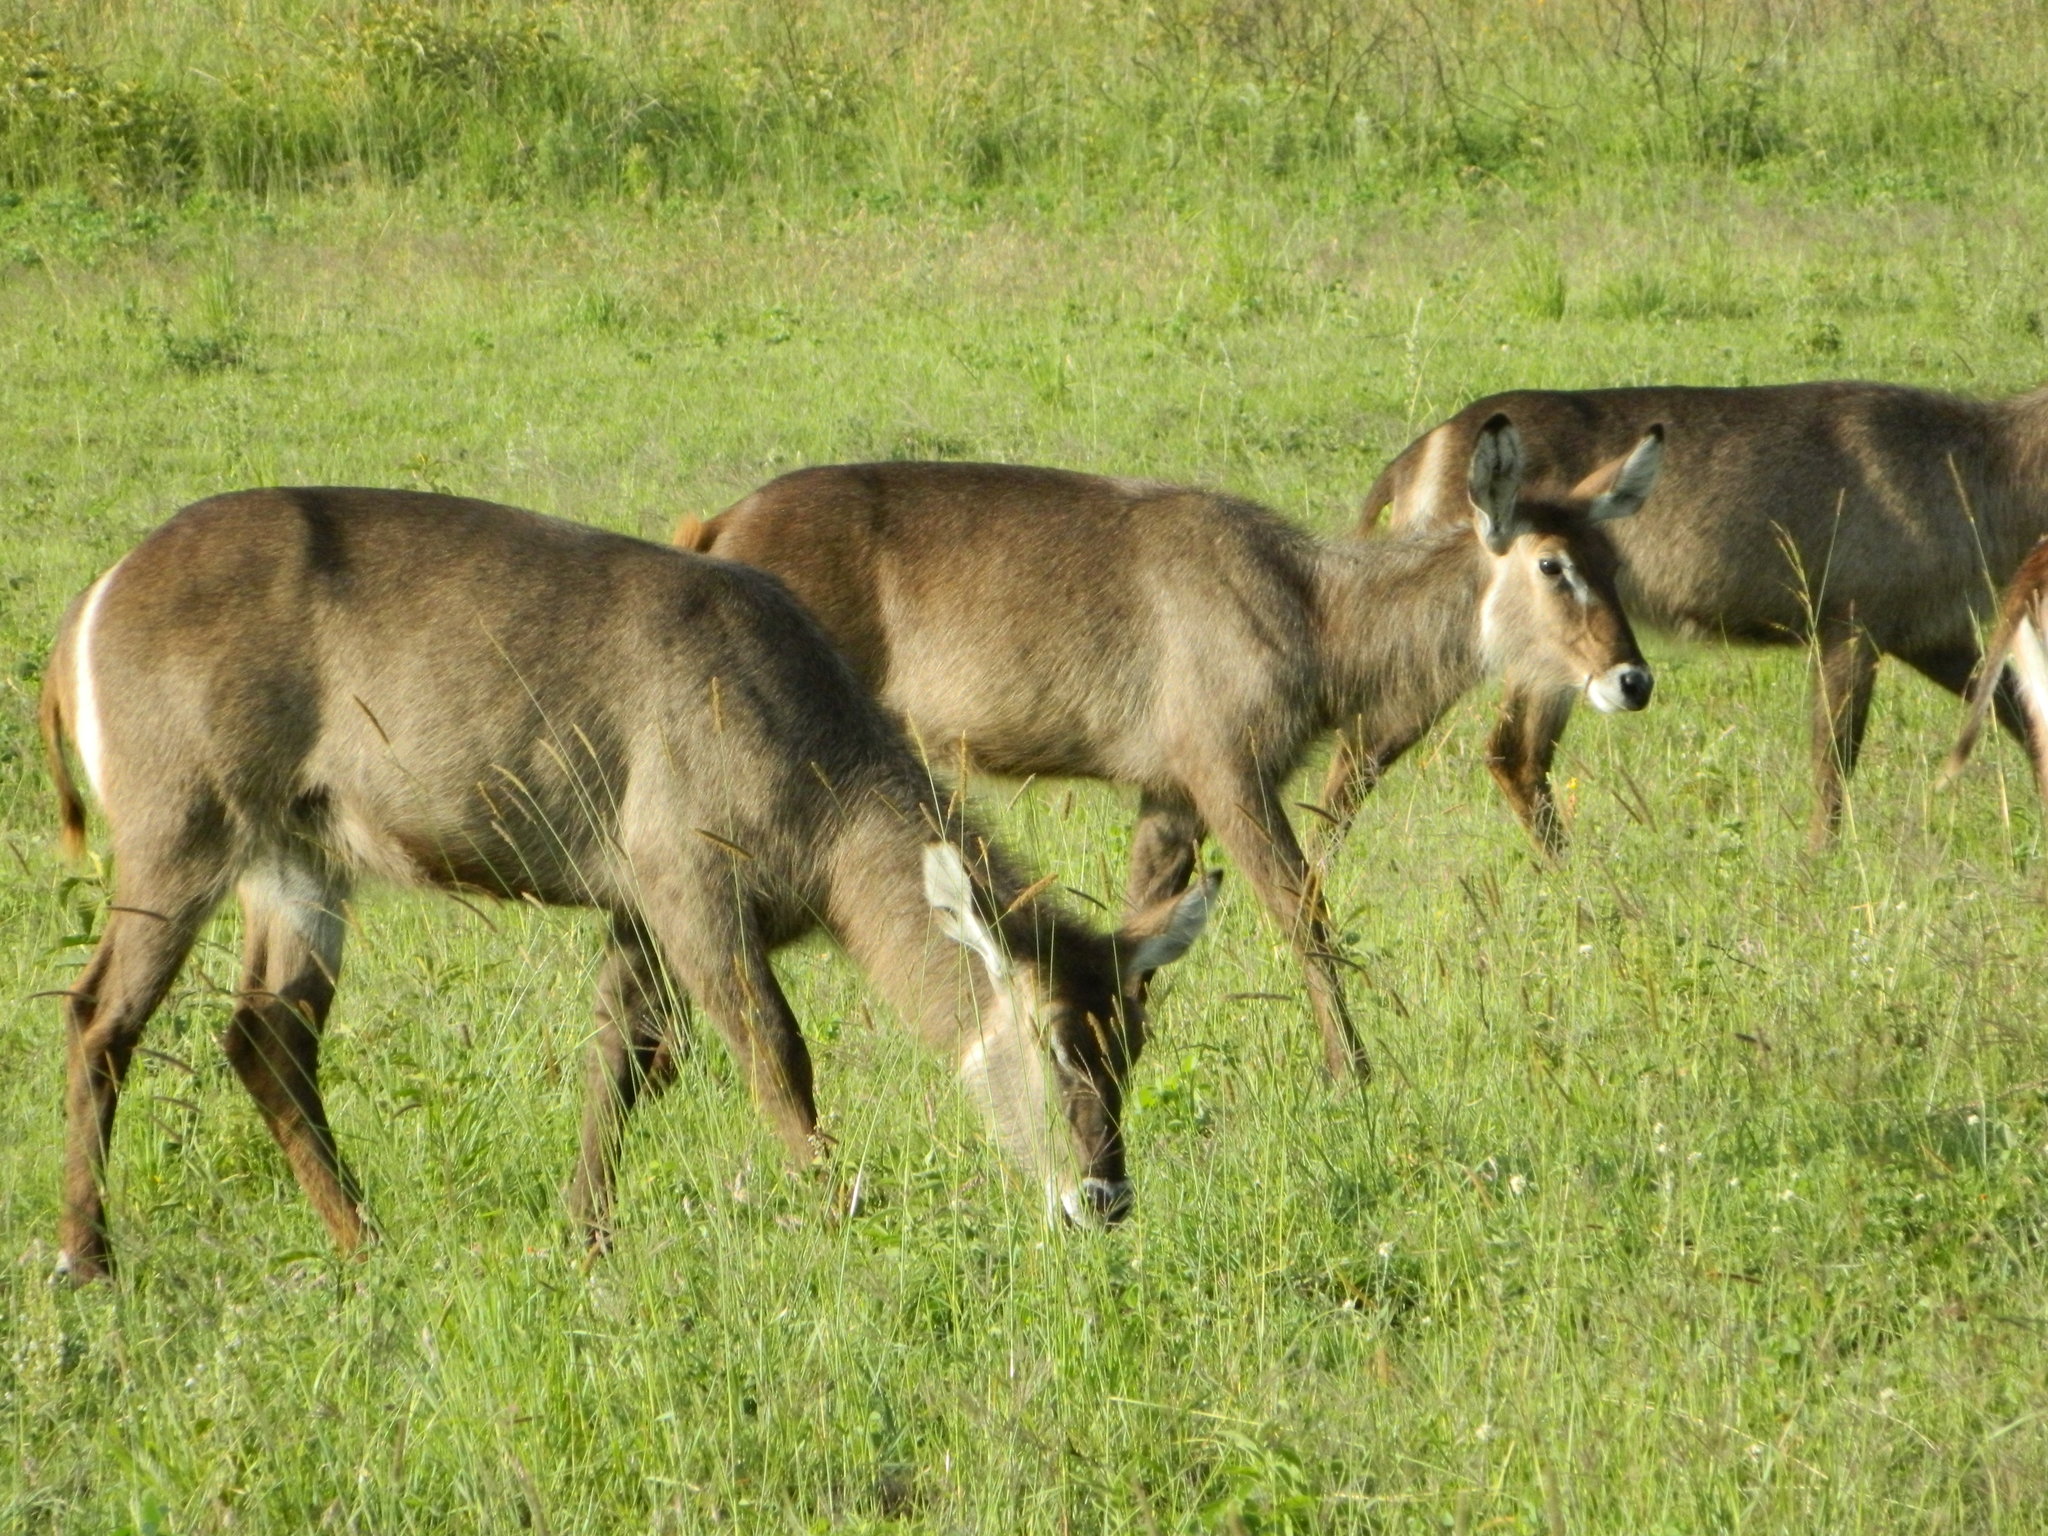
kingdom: Animalia
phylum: Chordata
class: Mammalia
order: Artiodactyla
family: Bovidae
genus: Kobus
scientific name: Kobus ellipsiprymnus
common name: Waterbuck
